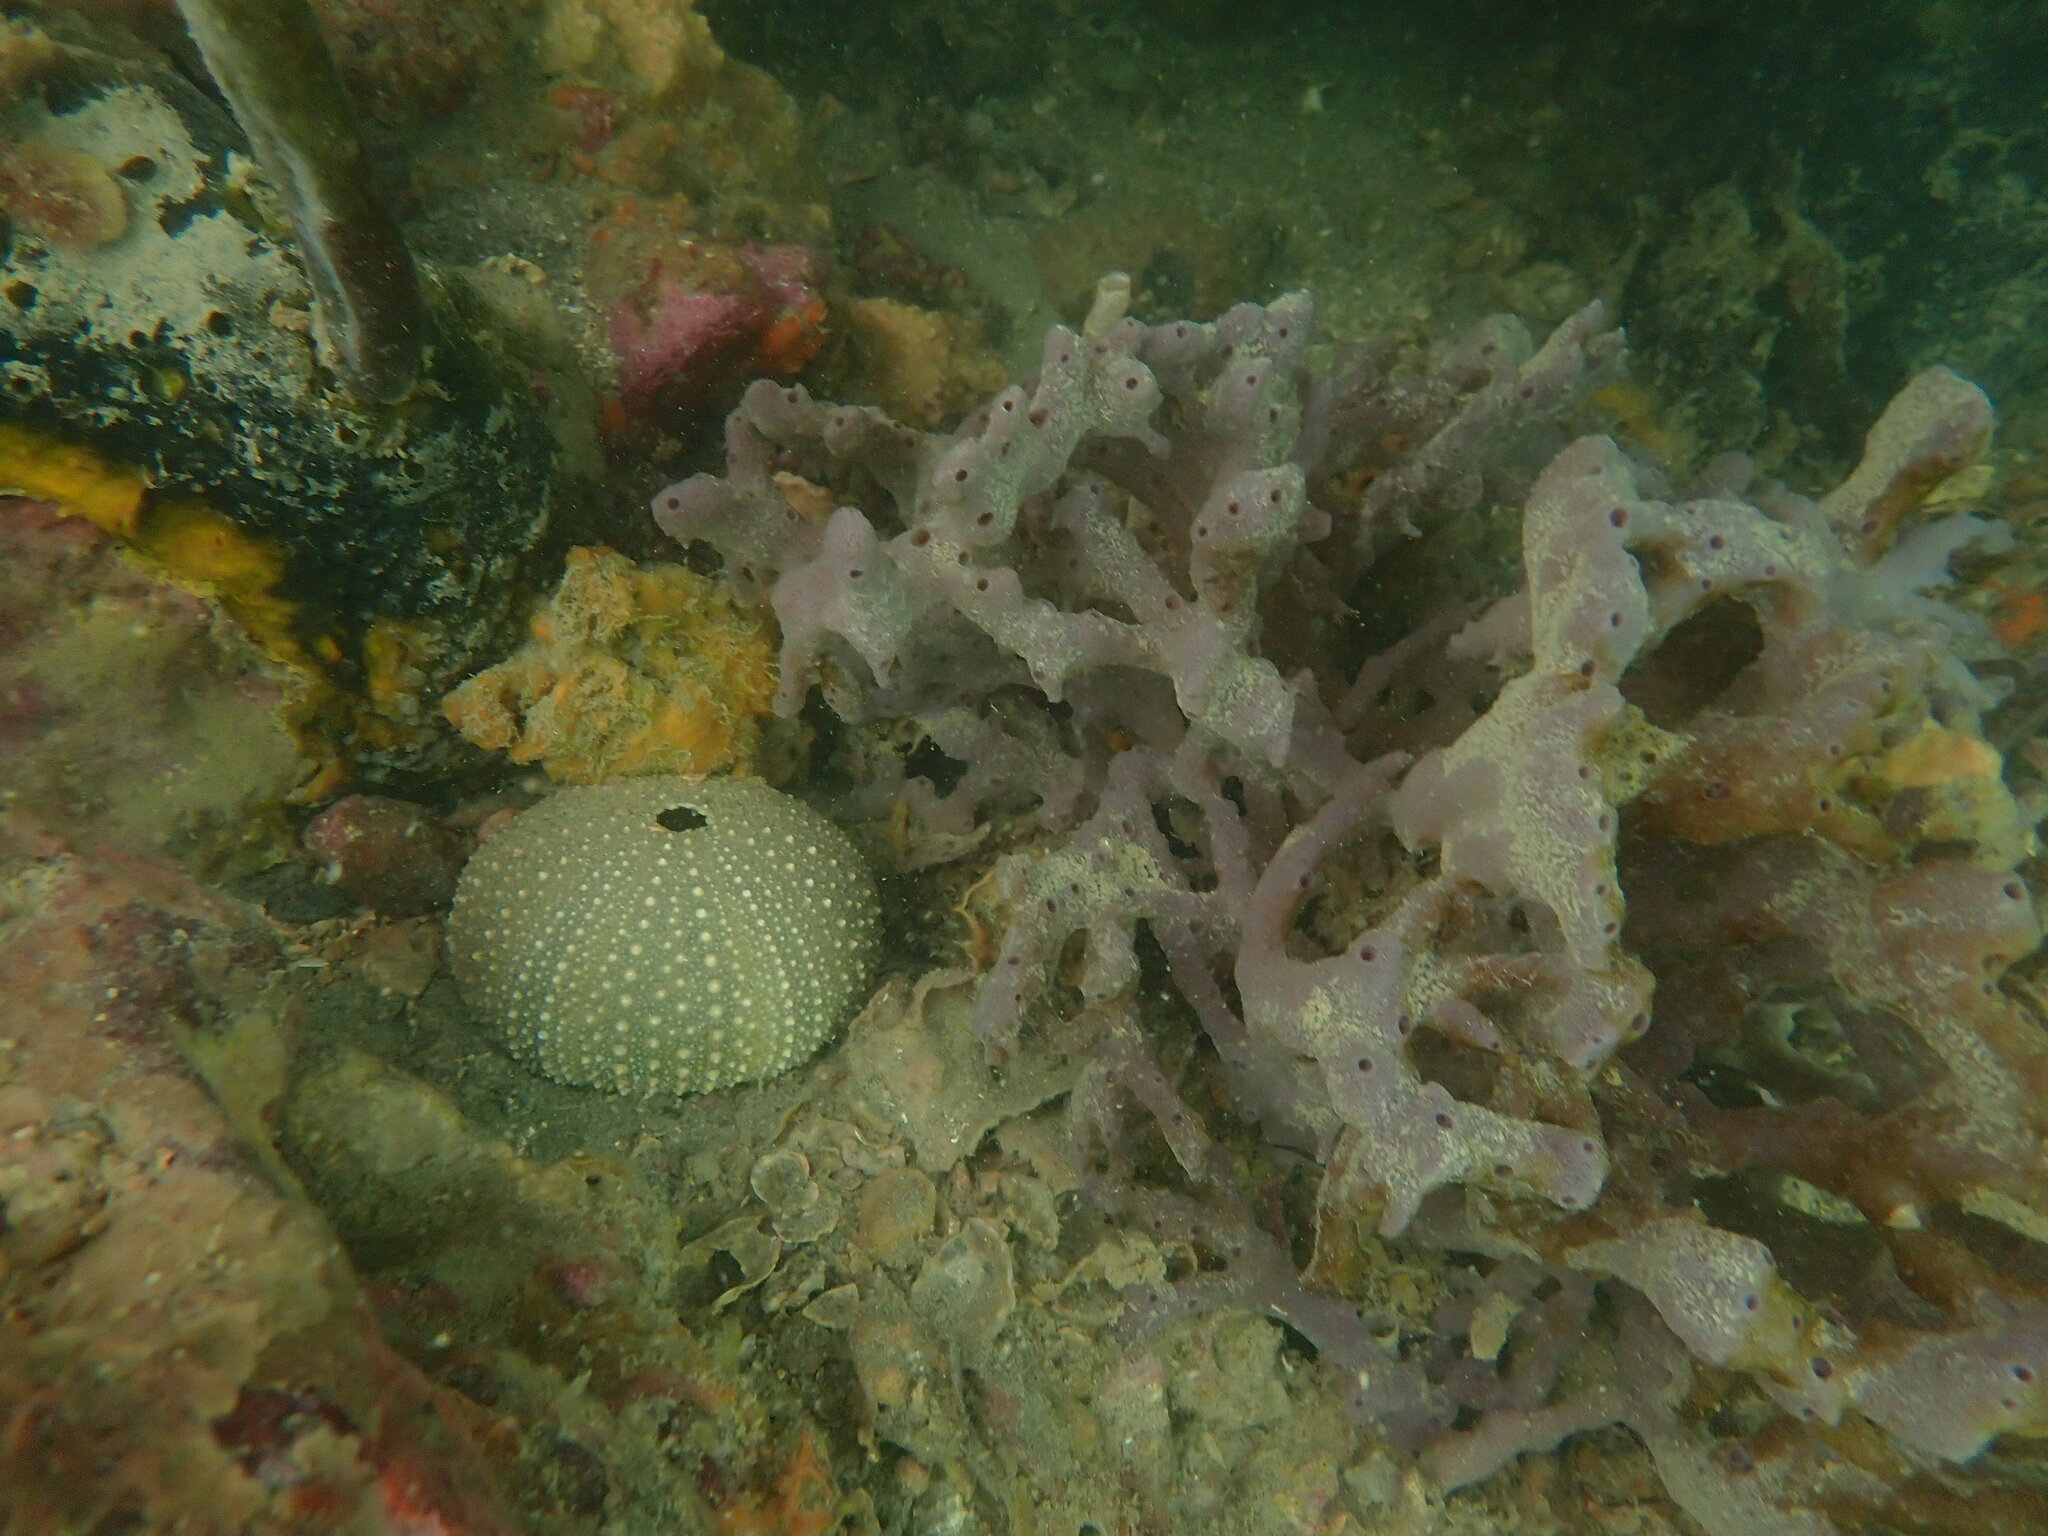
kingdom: Animalia
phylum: Echinodermata
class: Echinoidea
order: Camarodonta
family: Echinometridae
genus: Evechinus
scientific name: Evechinus chloroticus
